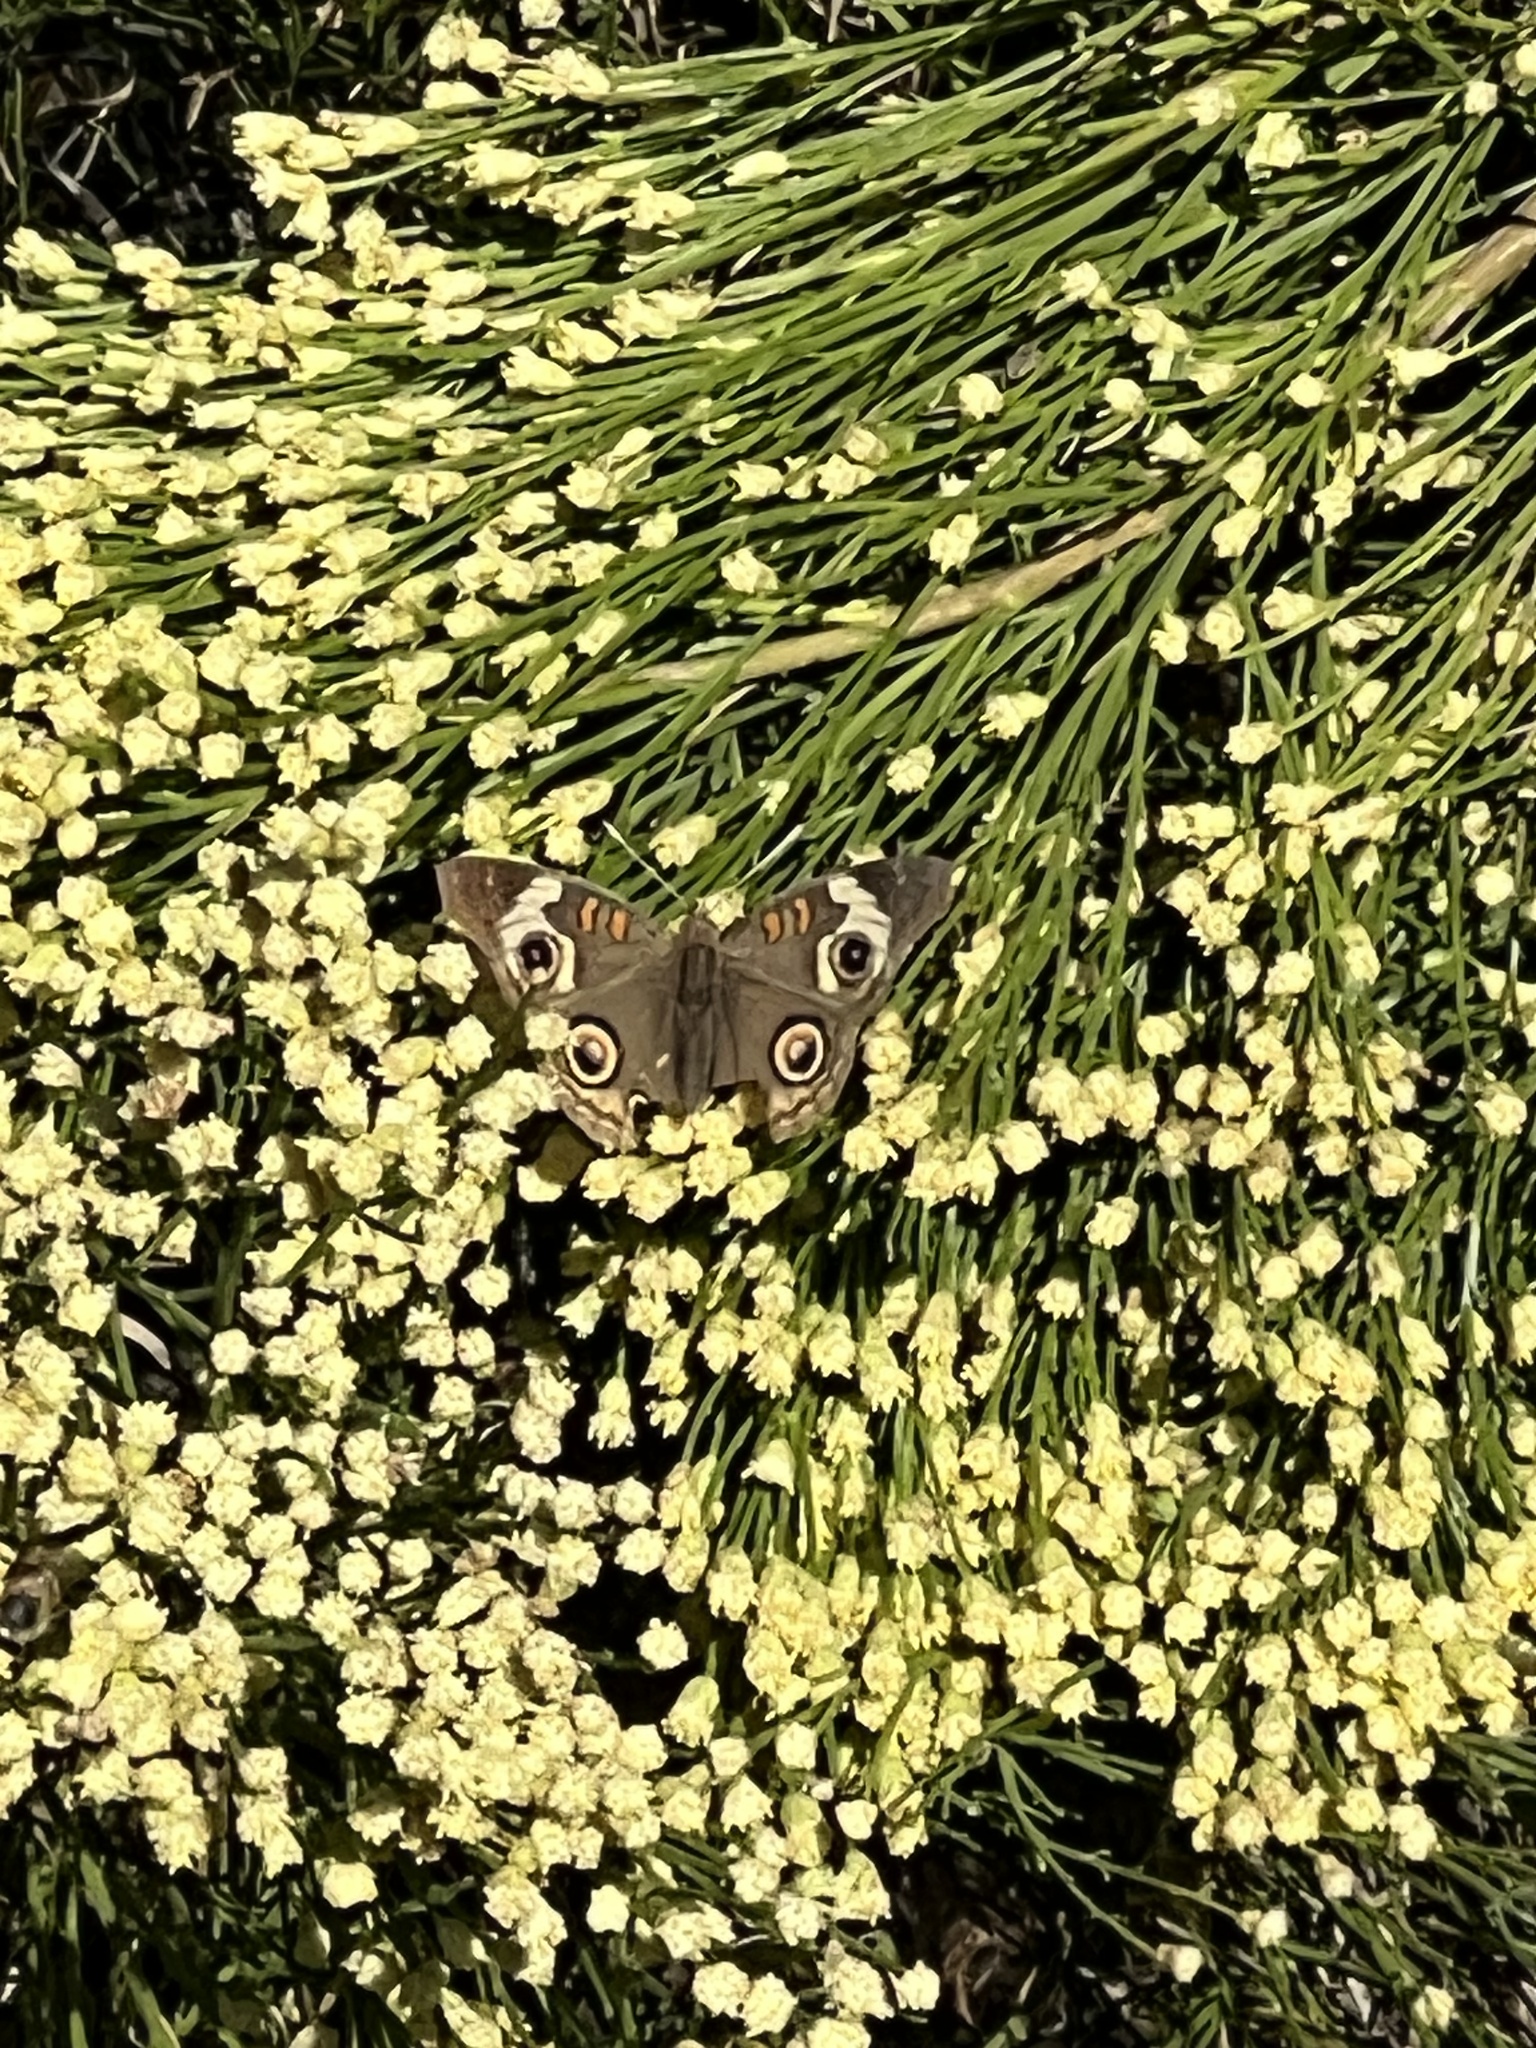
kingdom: Animalia
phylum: Arthropoda
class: Insecta
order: Lepidoptera
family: Nymphalidae
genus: Junonia
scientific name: Junonia grisea
